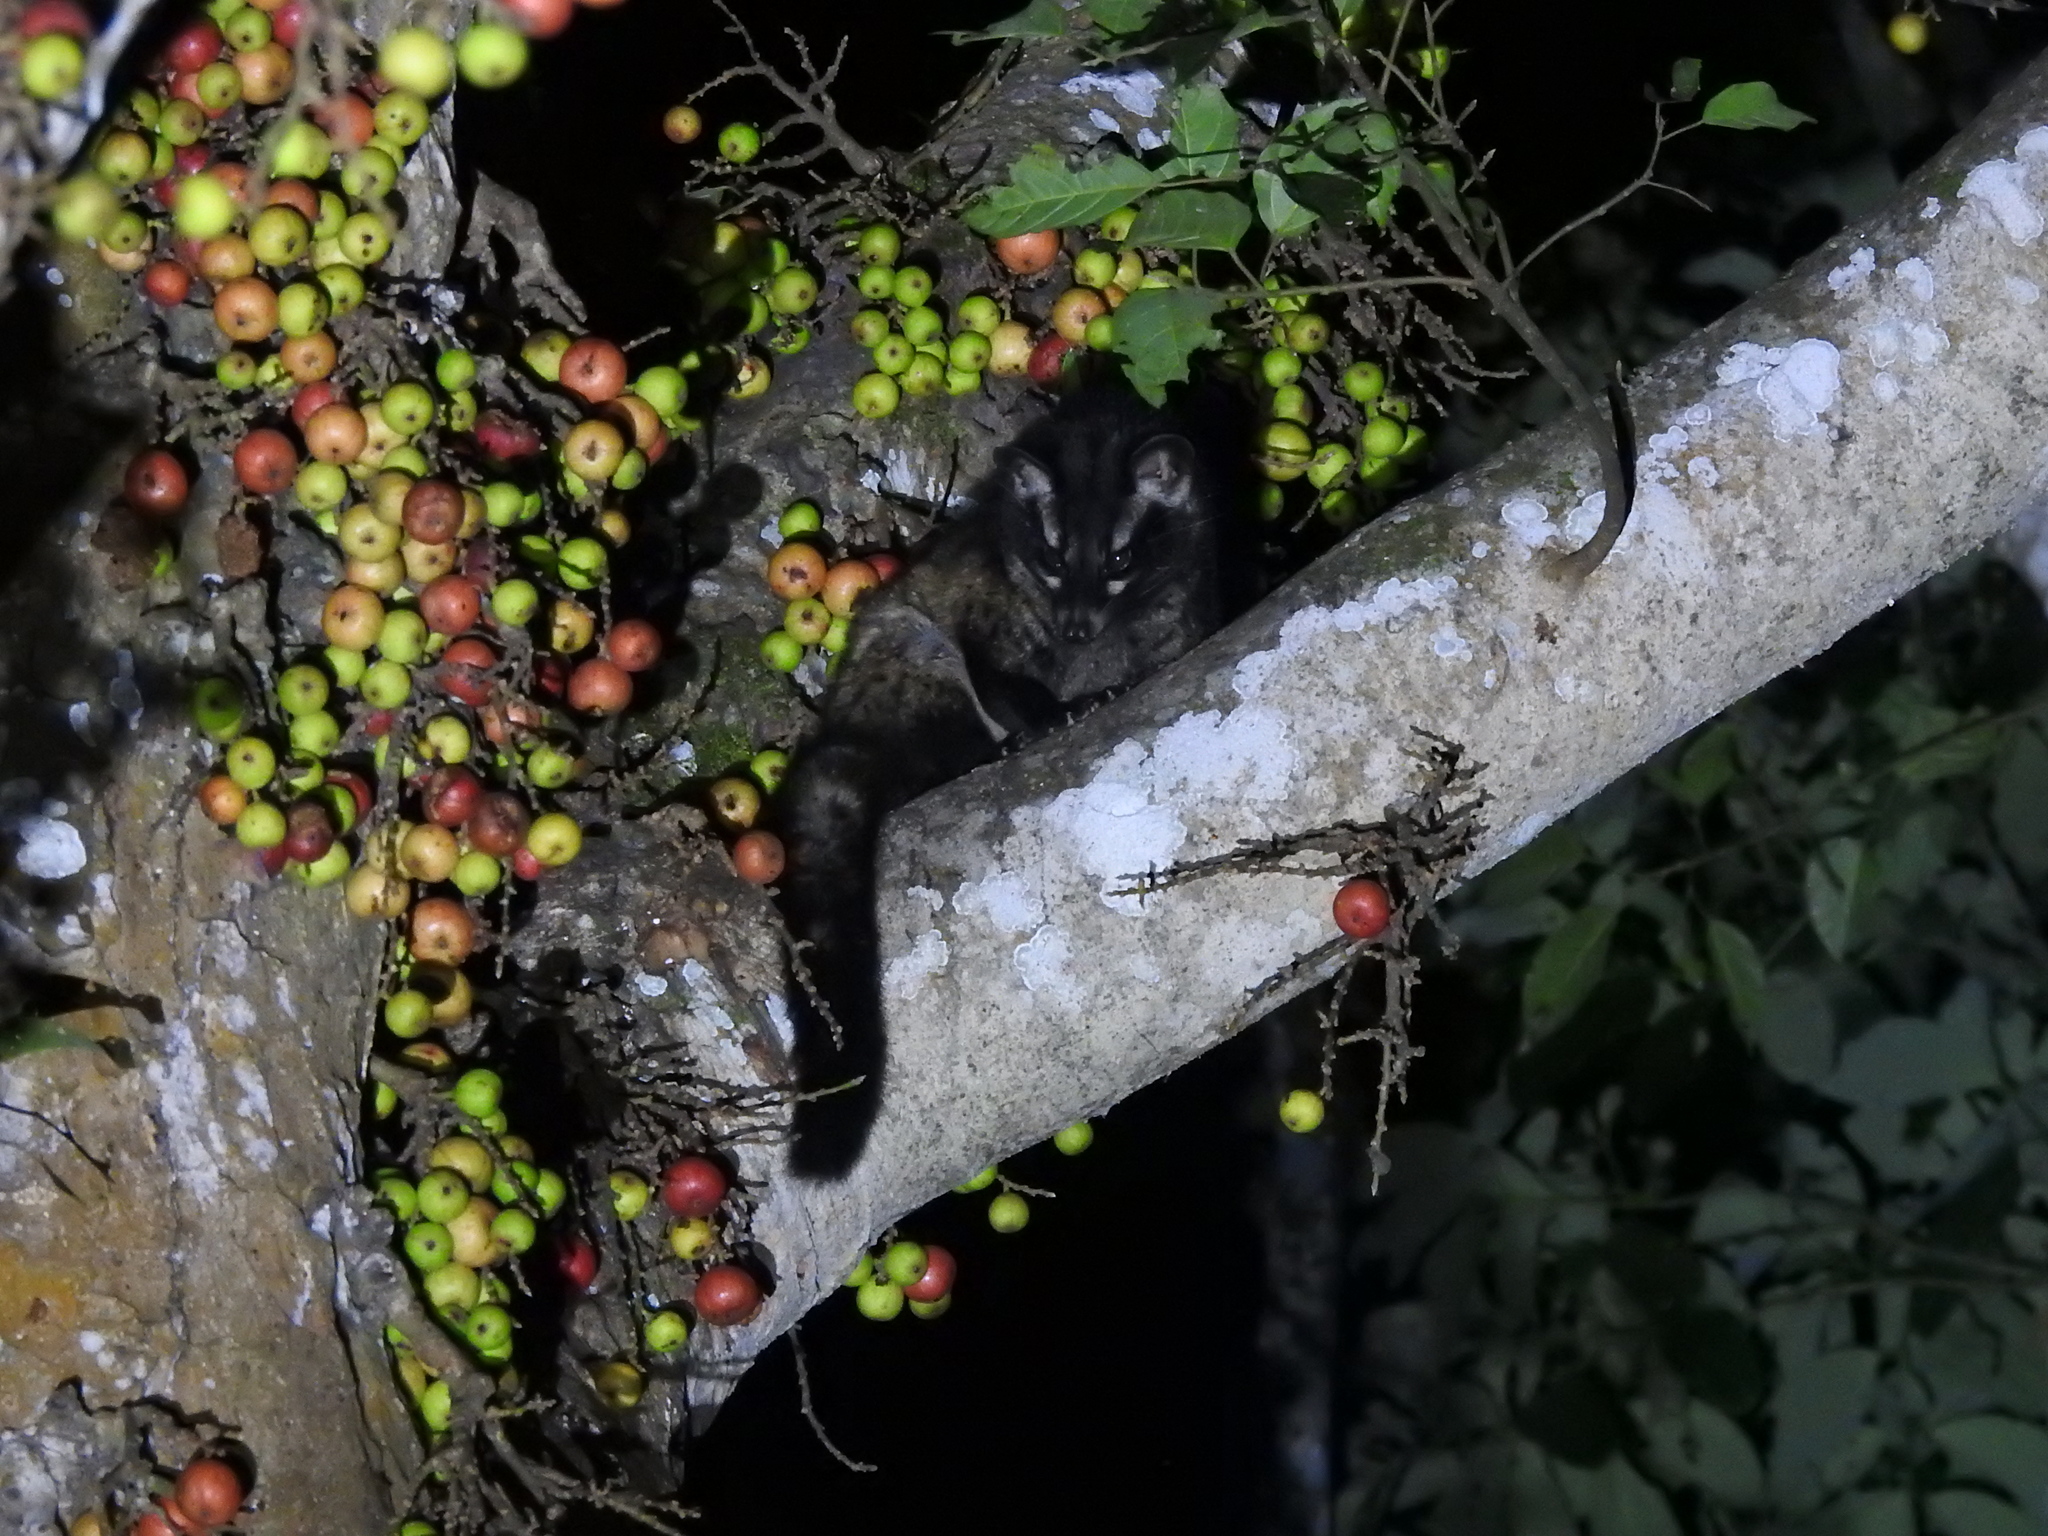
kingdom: Animalia
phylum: Chordata
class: Mammalia
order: Carnivora
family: Viverridae
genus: Paradoxurus
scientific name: Paradoxurus hermaphroditus
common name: Common palm civet
